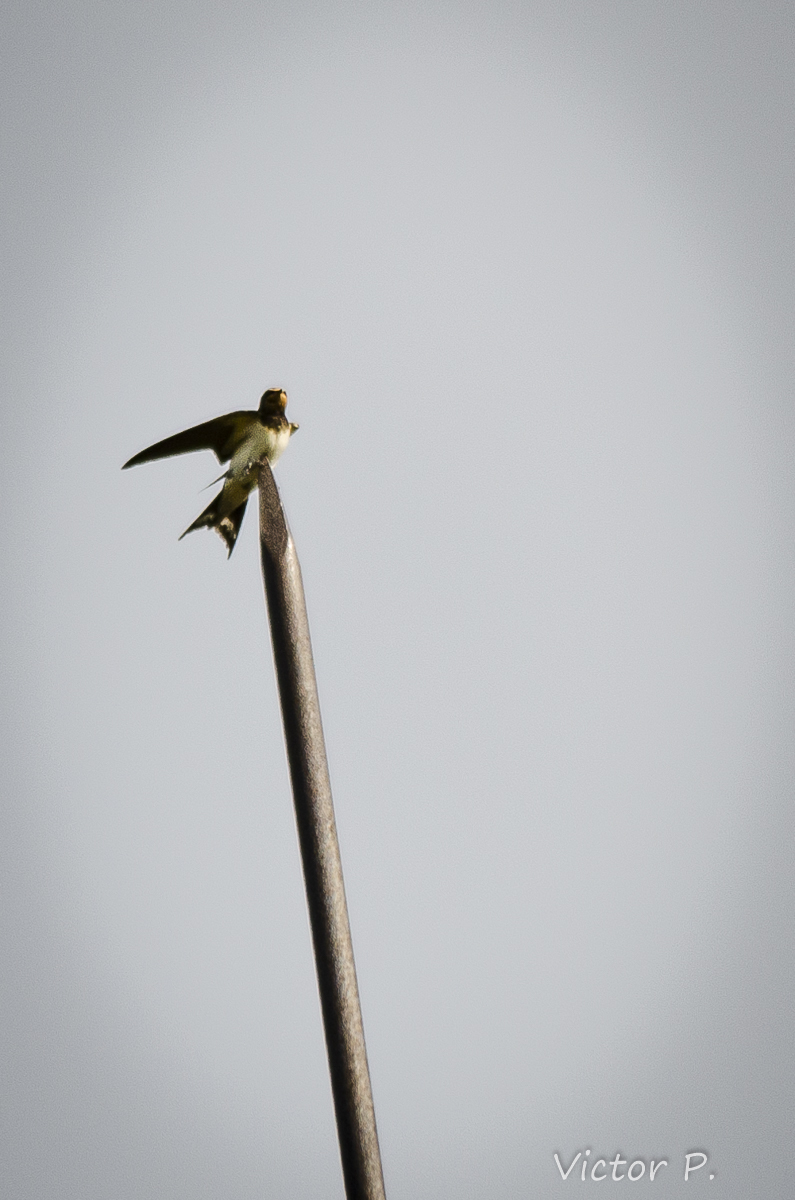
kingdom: Animalia
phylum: Chordata
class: Aves
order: Passeriformes
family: Hirundinidae
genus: Hirundo
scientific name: Hirundo rustica
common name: Barn swallow
